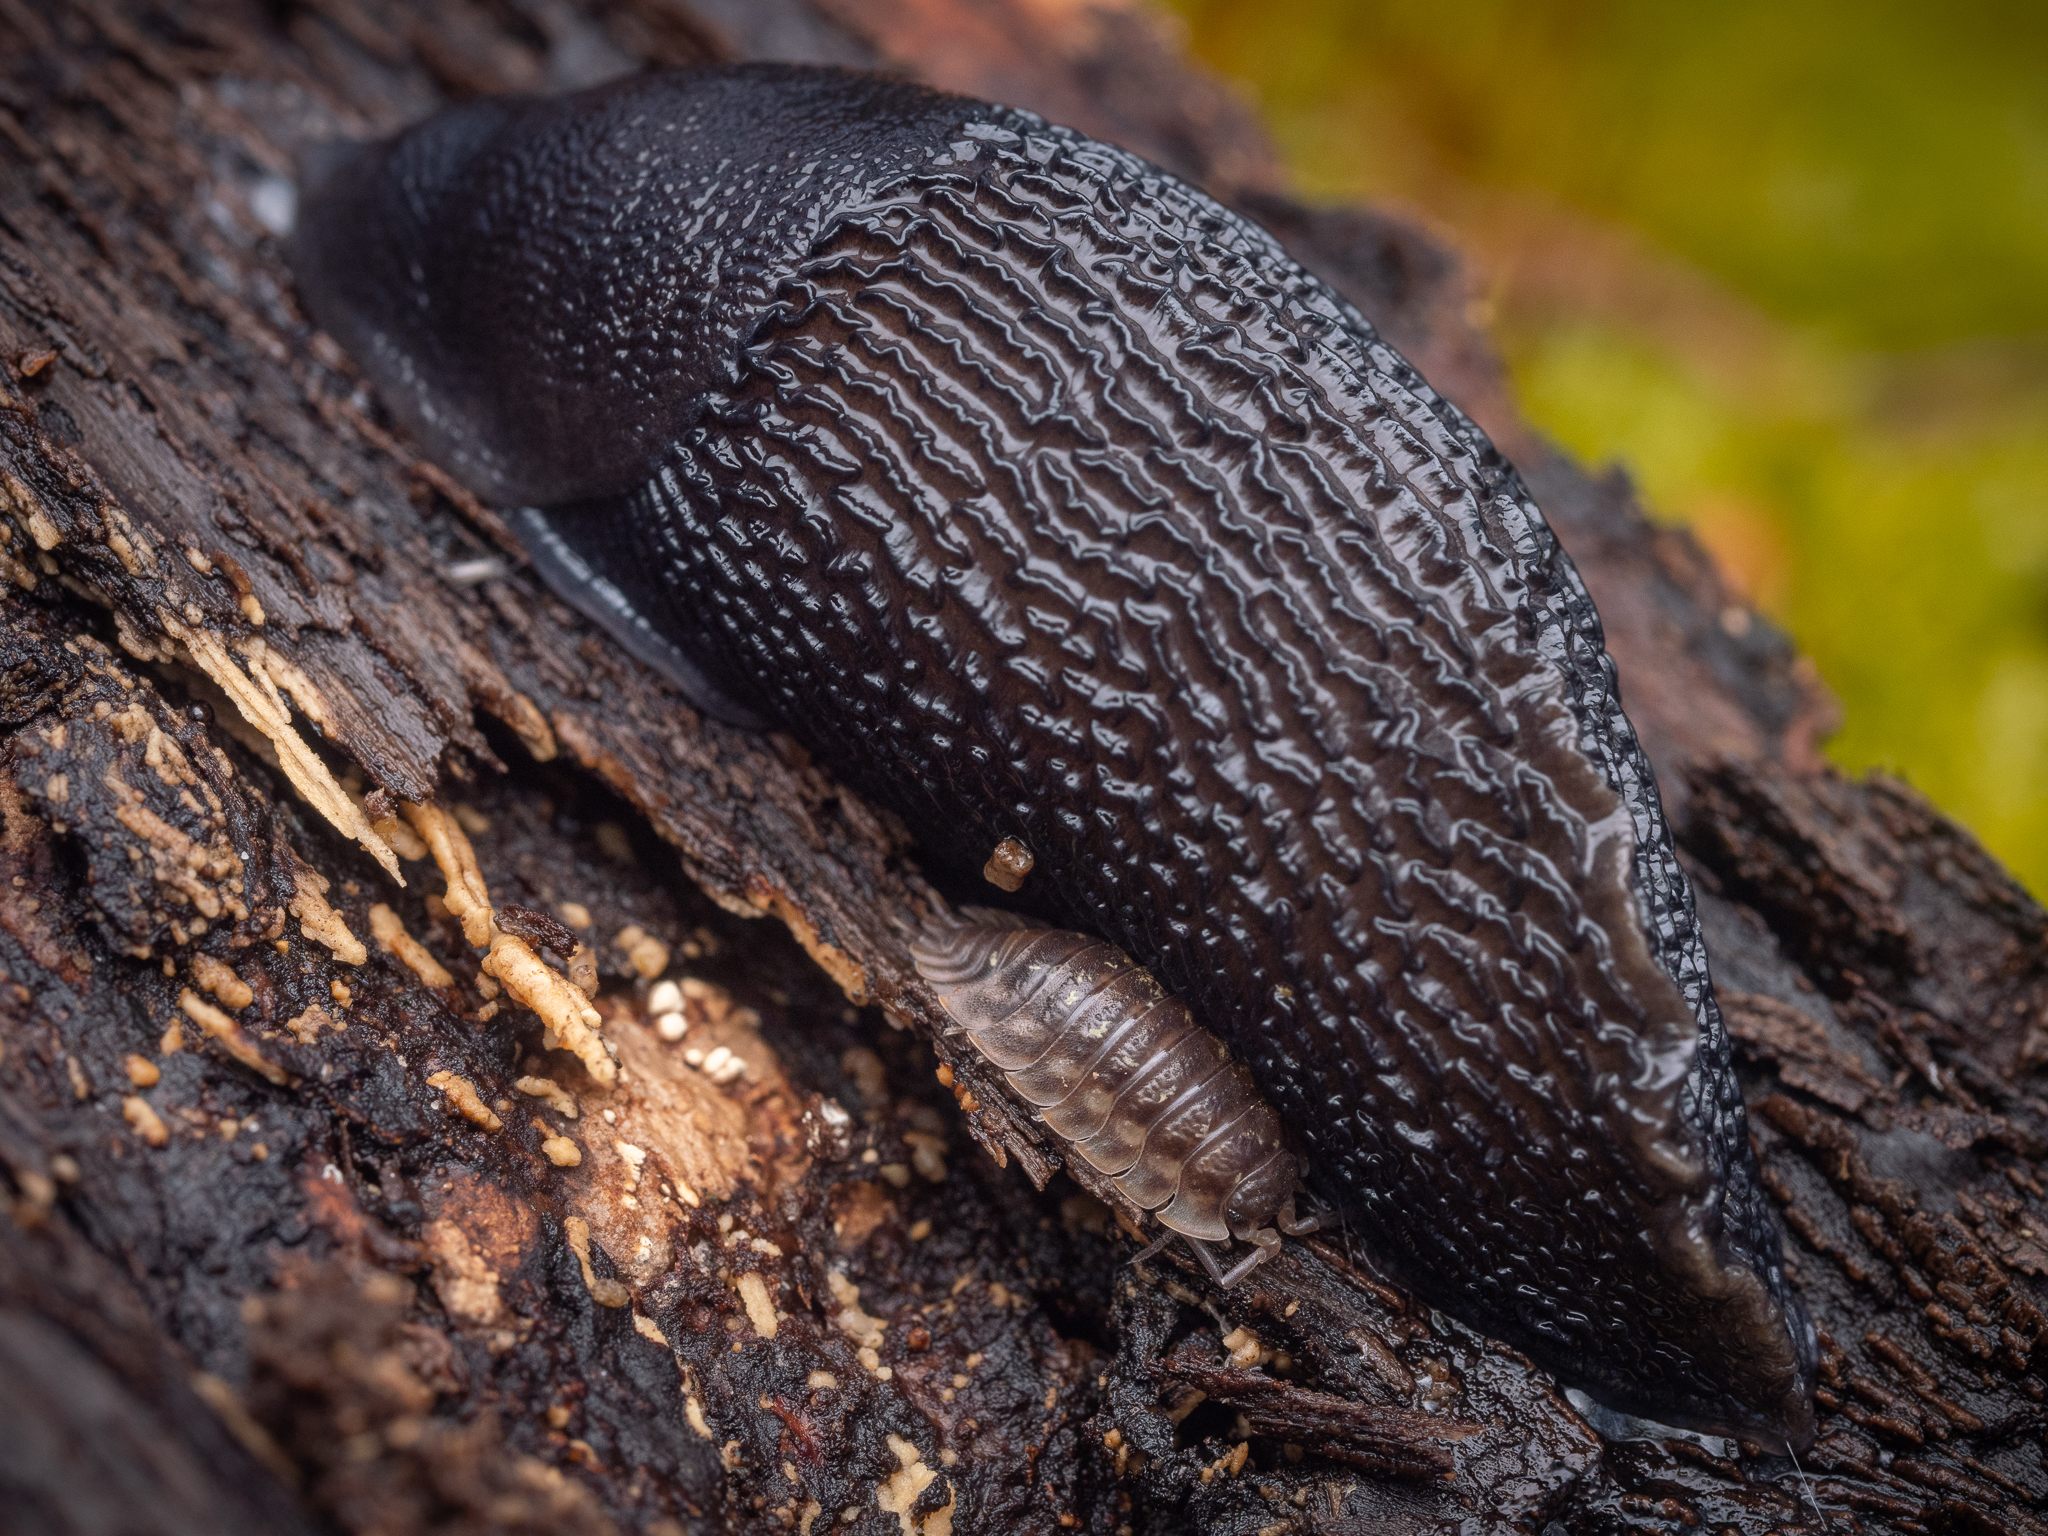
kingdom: Animalia
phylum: Mollusca
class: Gastropoda
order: Stylommatophora
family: Limacidae
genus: Limax
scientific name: Limax cinereoniger
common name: Ash-black slug
